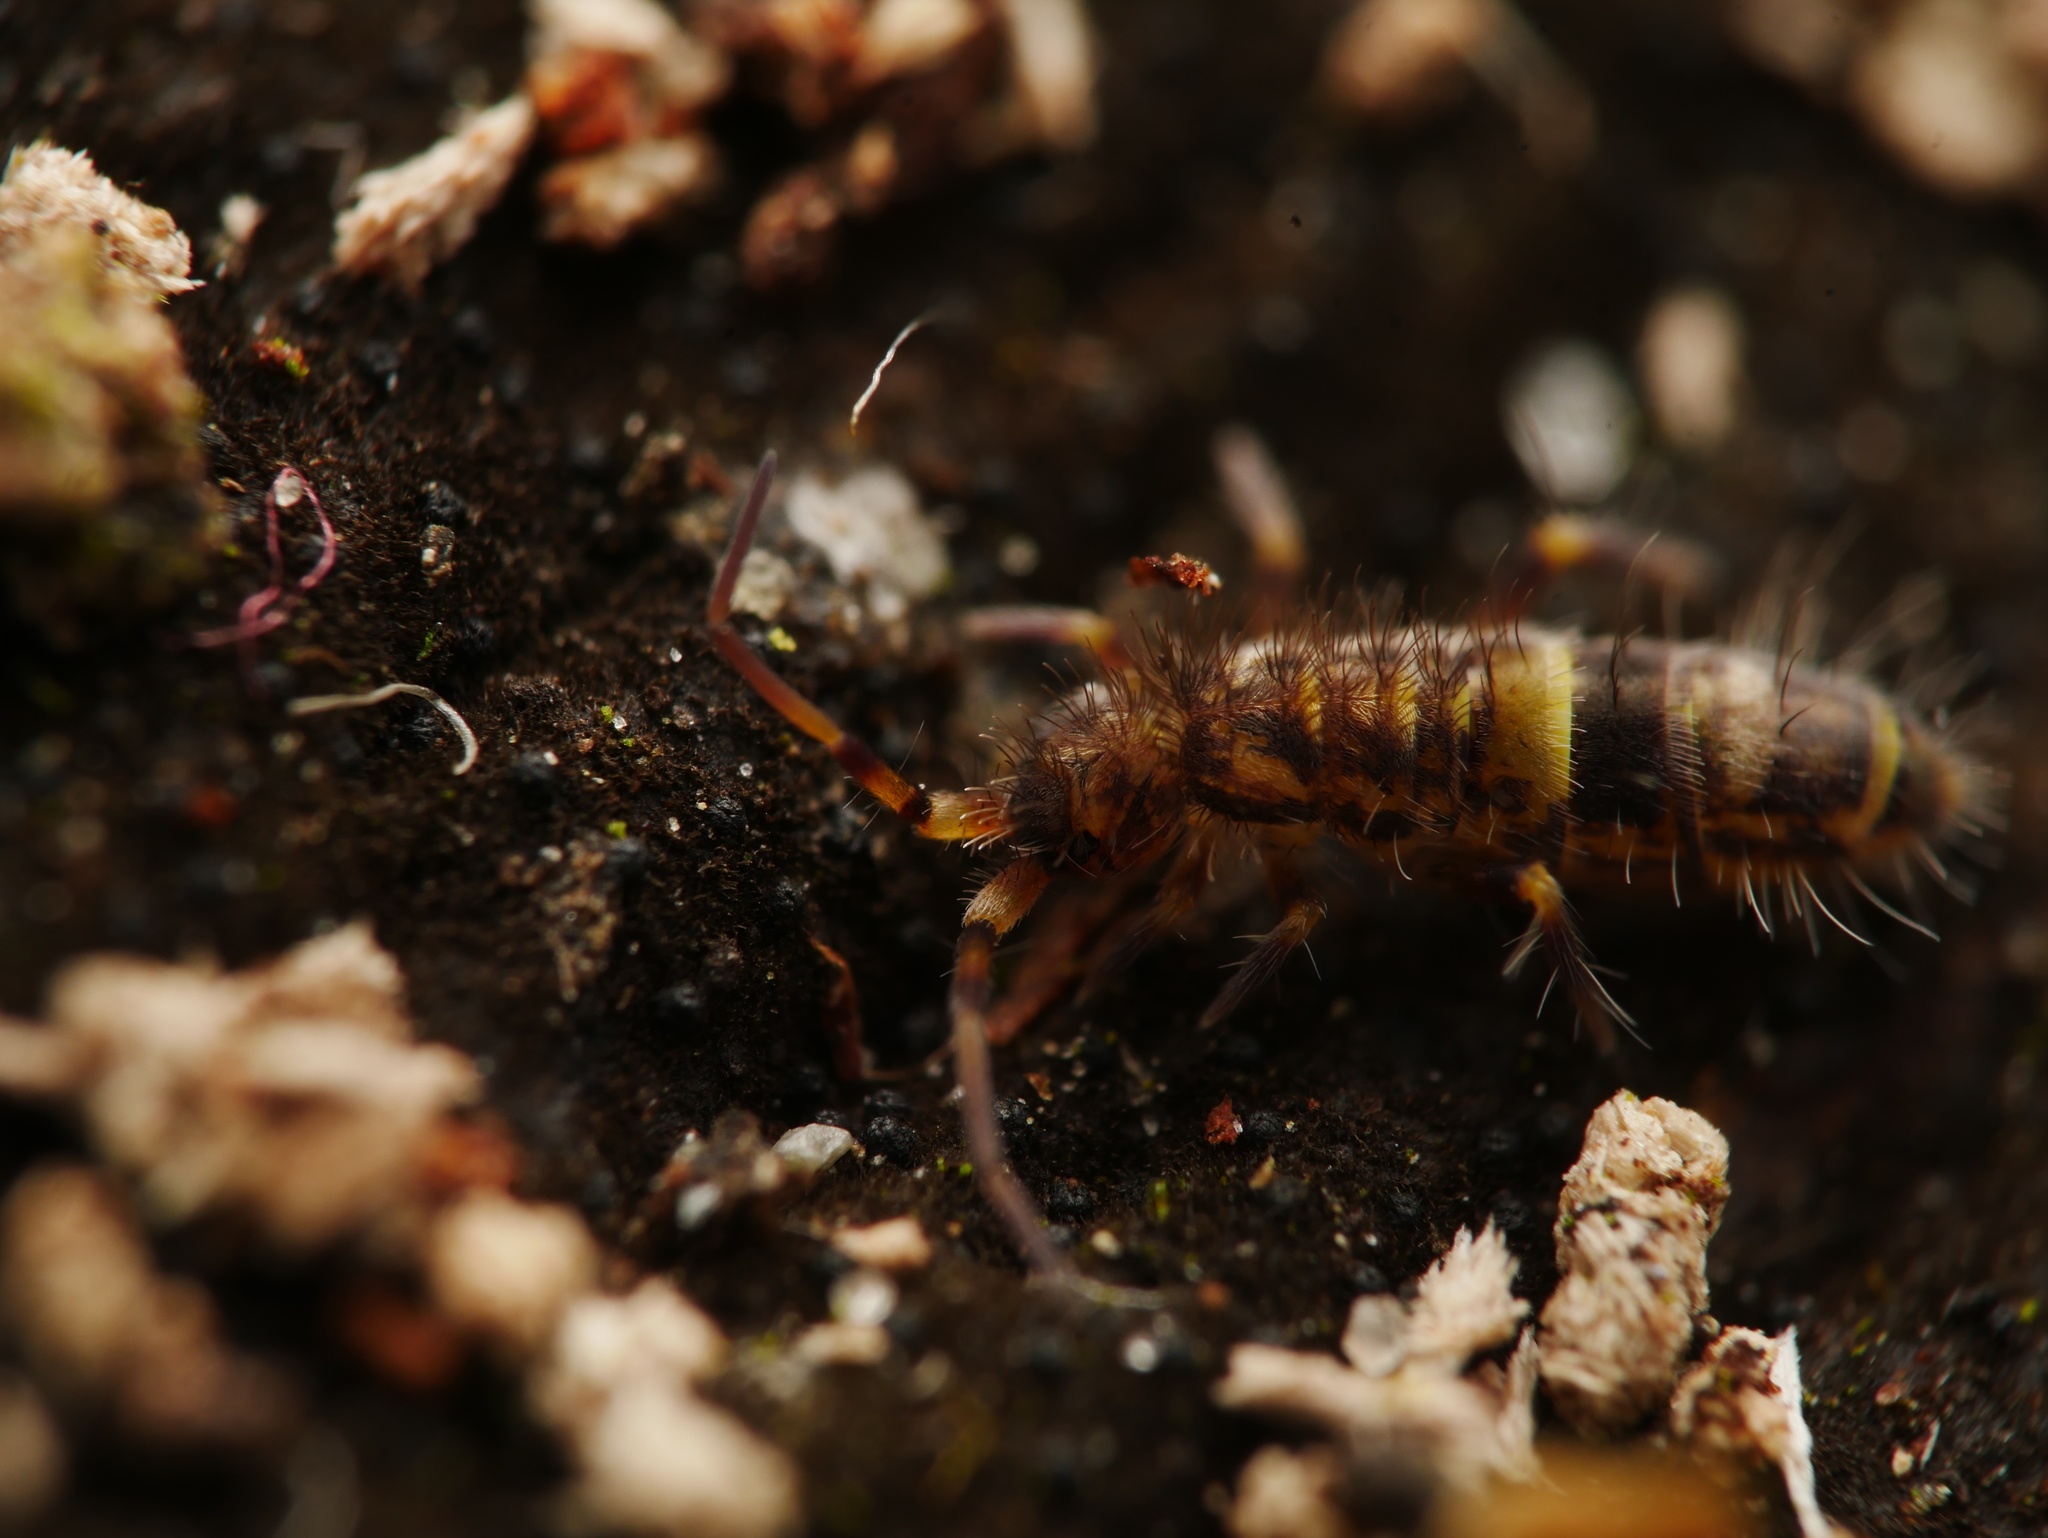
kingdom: Animalia
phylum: Arthropoda
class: Collembola
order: Entomobryomorpha
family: Orchesellidae
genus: Orchesella
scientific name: Orchesella cincta
